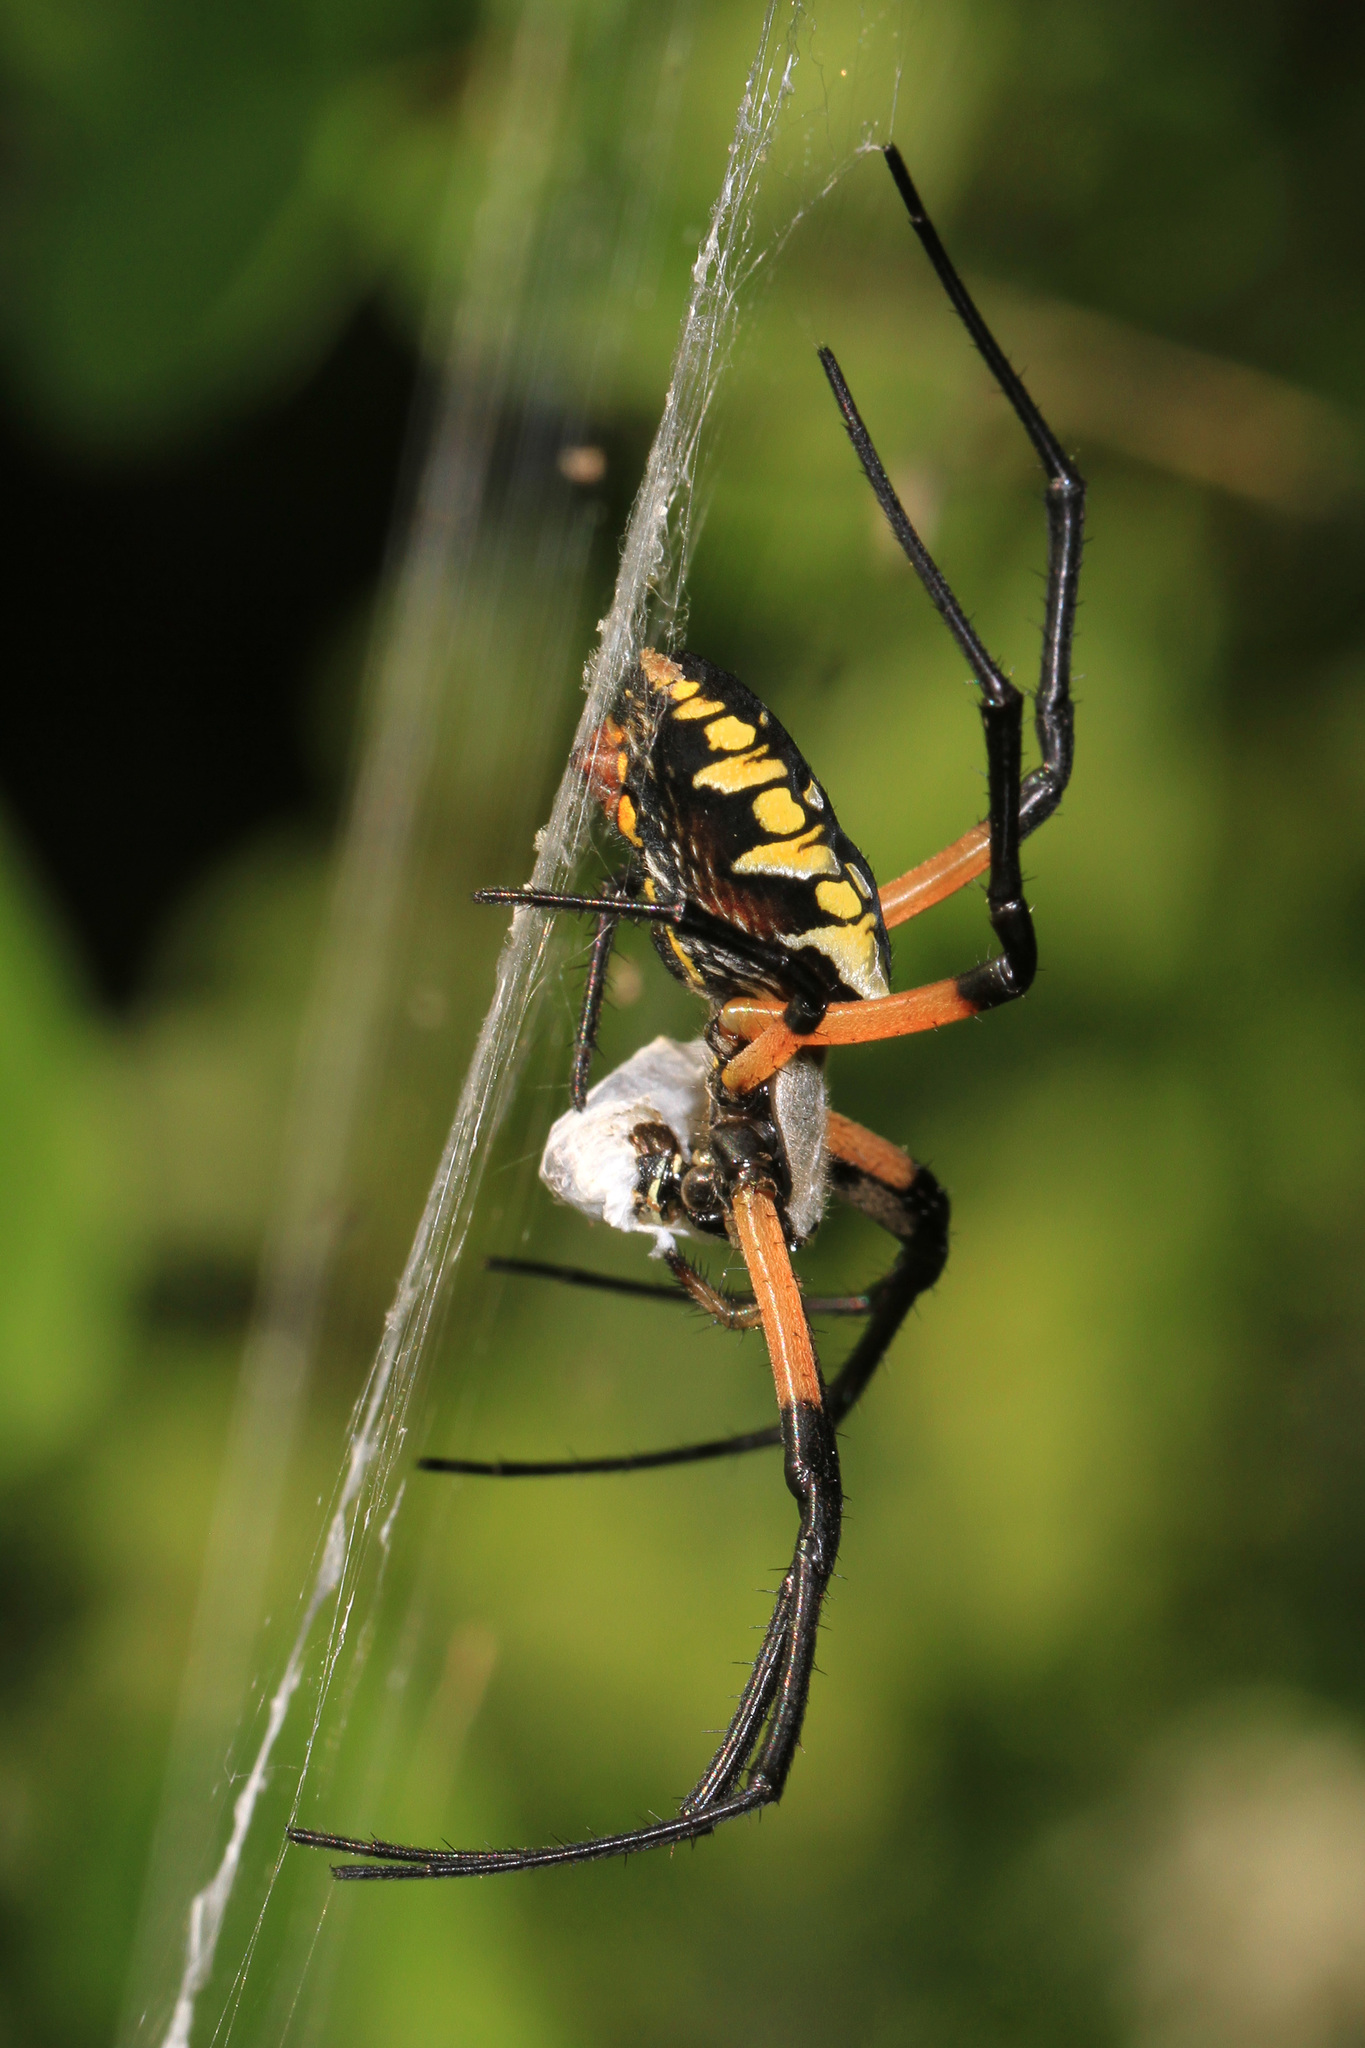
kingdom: Animalia
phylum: Arthropoda
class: Arachnida
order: Araneae
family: Araneidae
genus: Argiope
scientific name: Argiope aurantia
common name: Orb weavers
